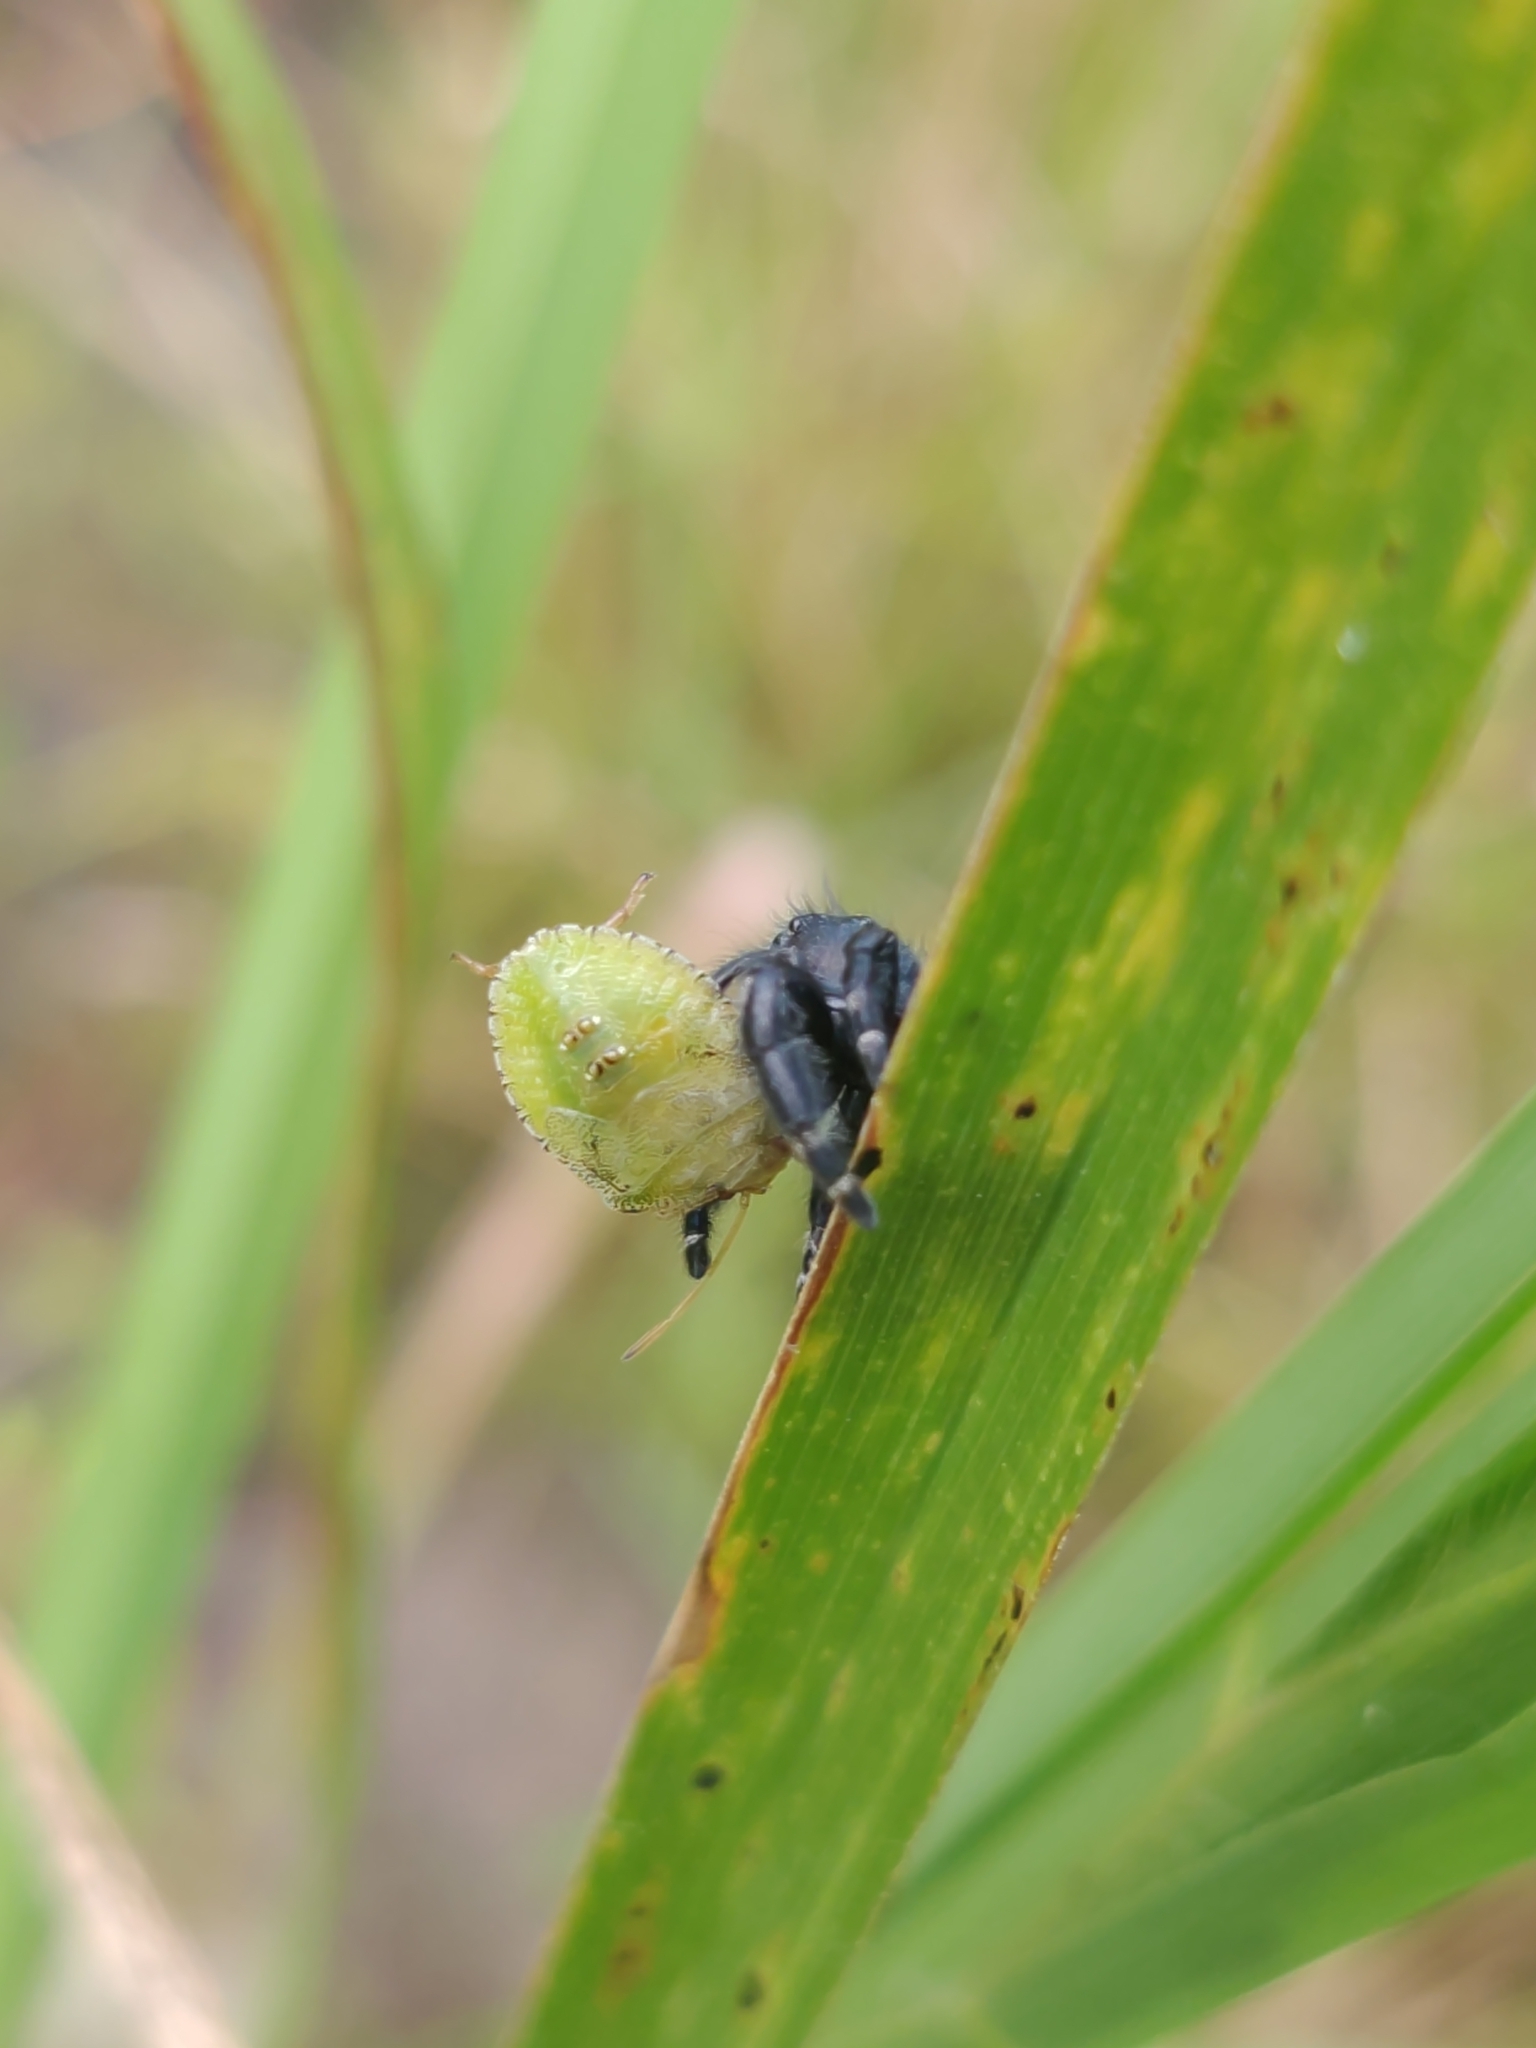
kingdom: Animalia
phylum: Arthropoda
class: Arachnida
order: Araneae
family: Salticidae
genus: Phidippus
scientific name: Phidippus audax
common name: Bold jumper
